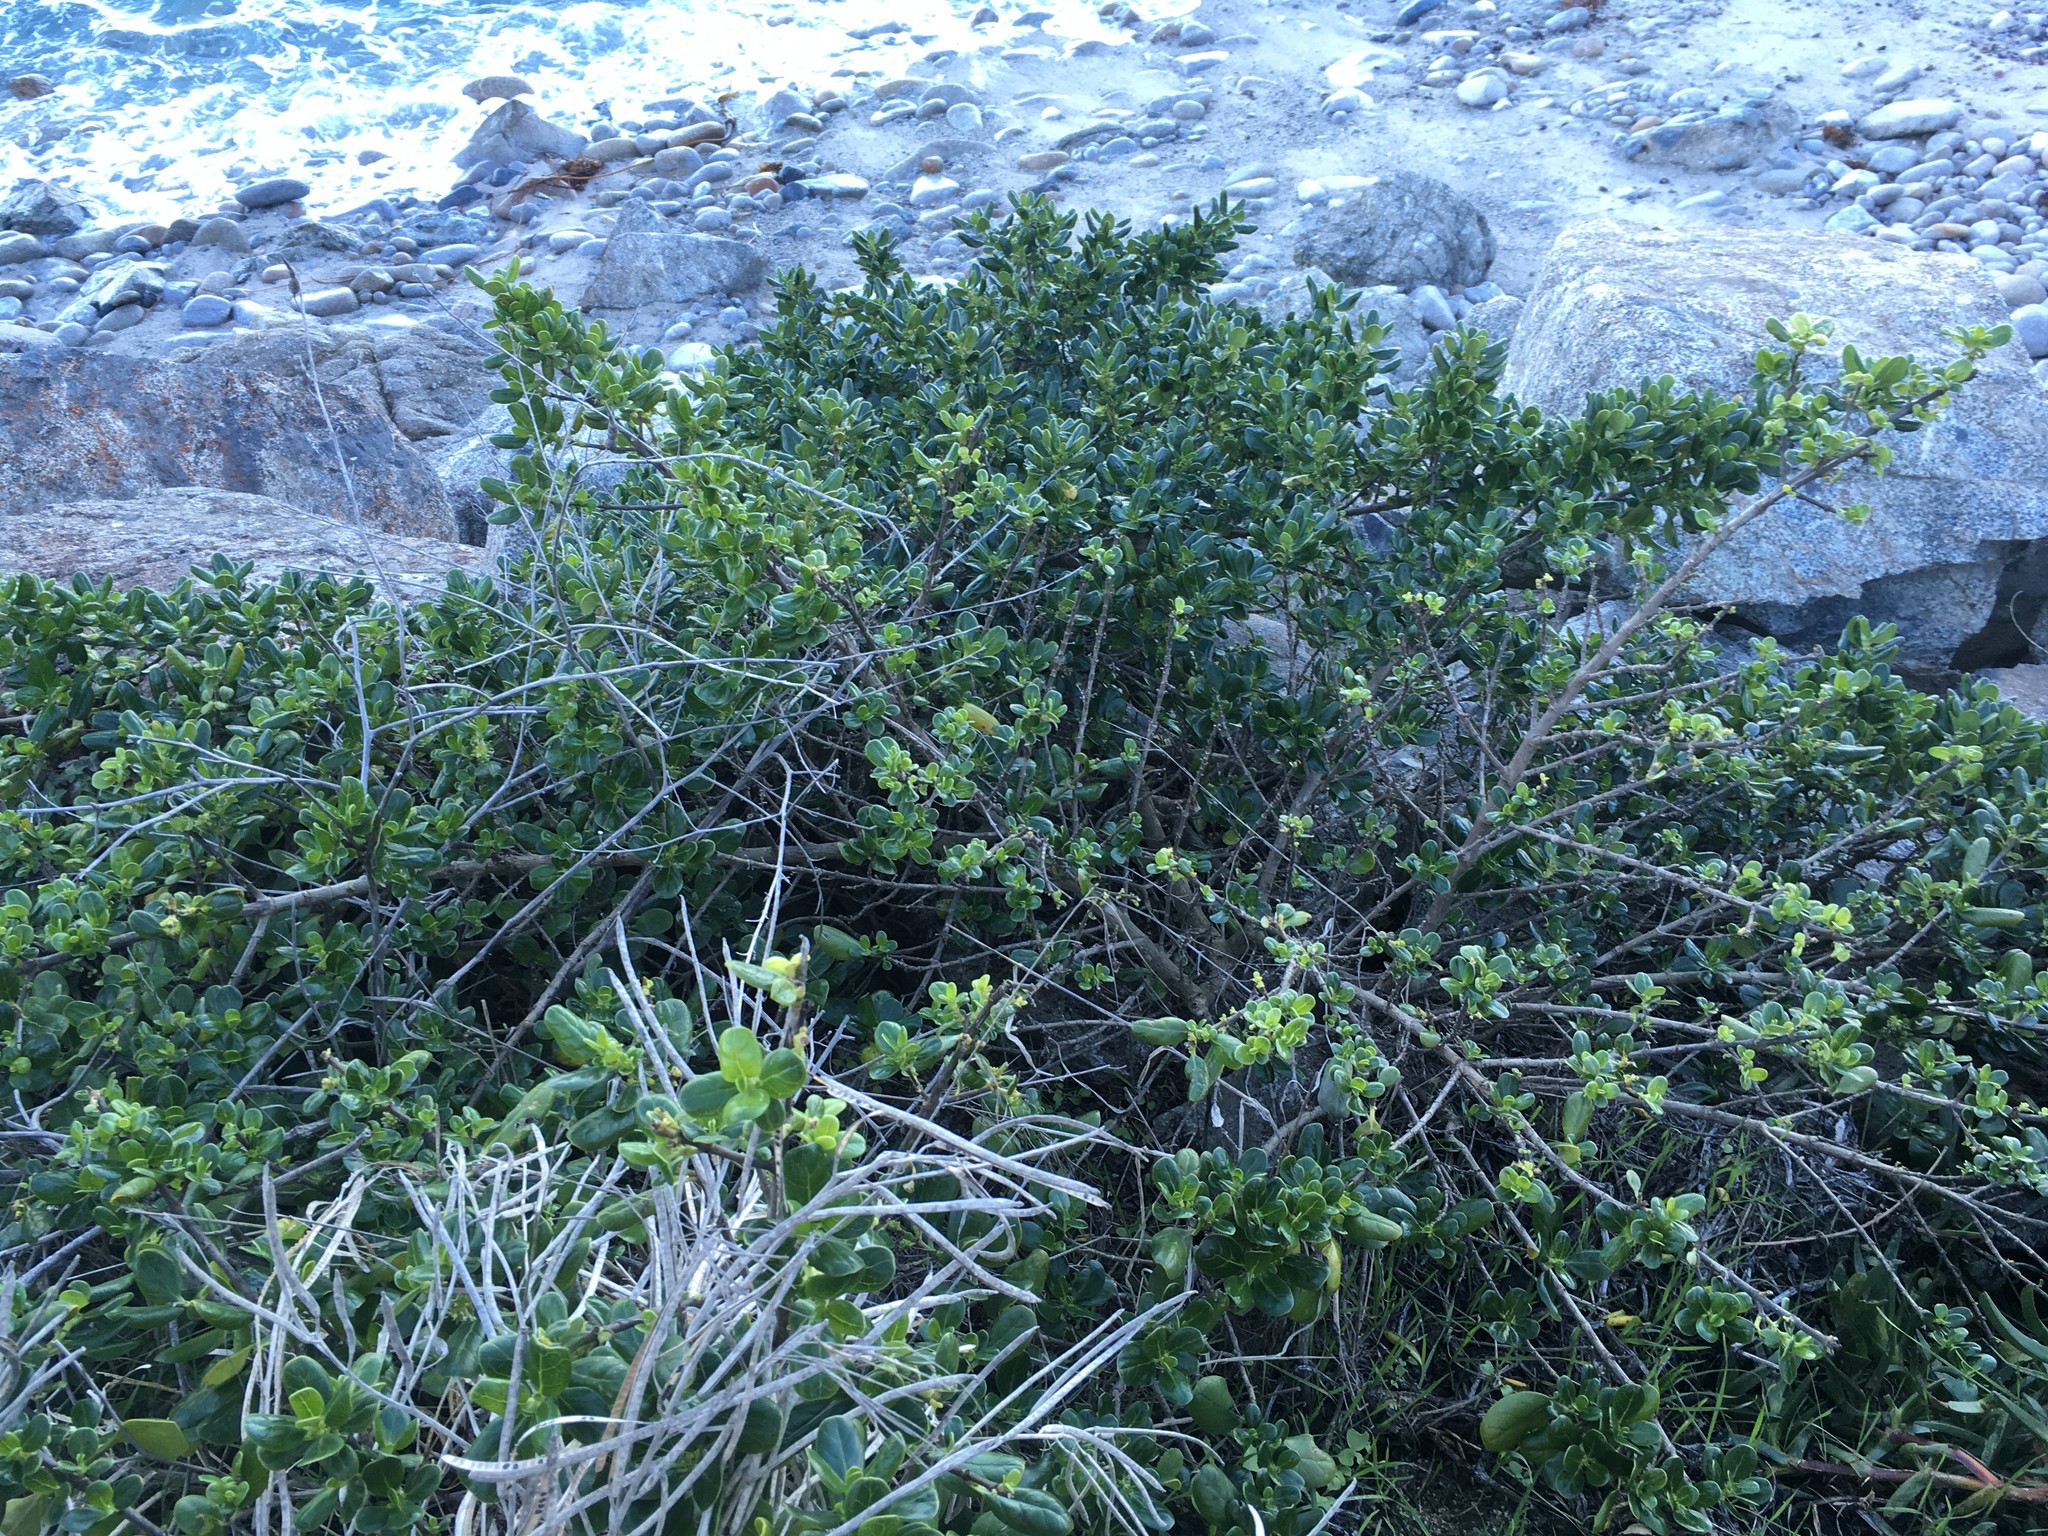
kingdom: Plantae
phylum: Tracheophyta
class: Magnoliopsida
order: Gentianales
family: Rubiaceae
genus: Coprosma
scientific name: Coprosma repens
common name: Tree bedstraw
